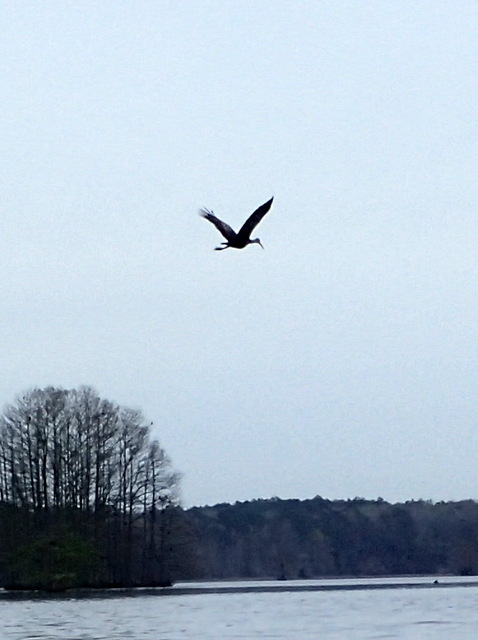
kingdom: Animalia
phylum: Chordata
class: Aves
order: Gruiformes
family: Aramidae
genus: Aramus
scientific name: Aramus guarauna
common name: Limpkin
